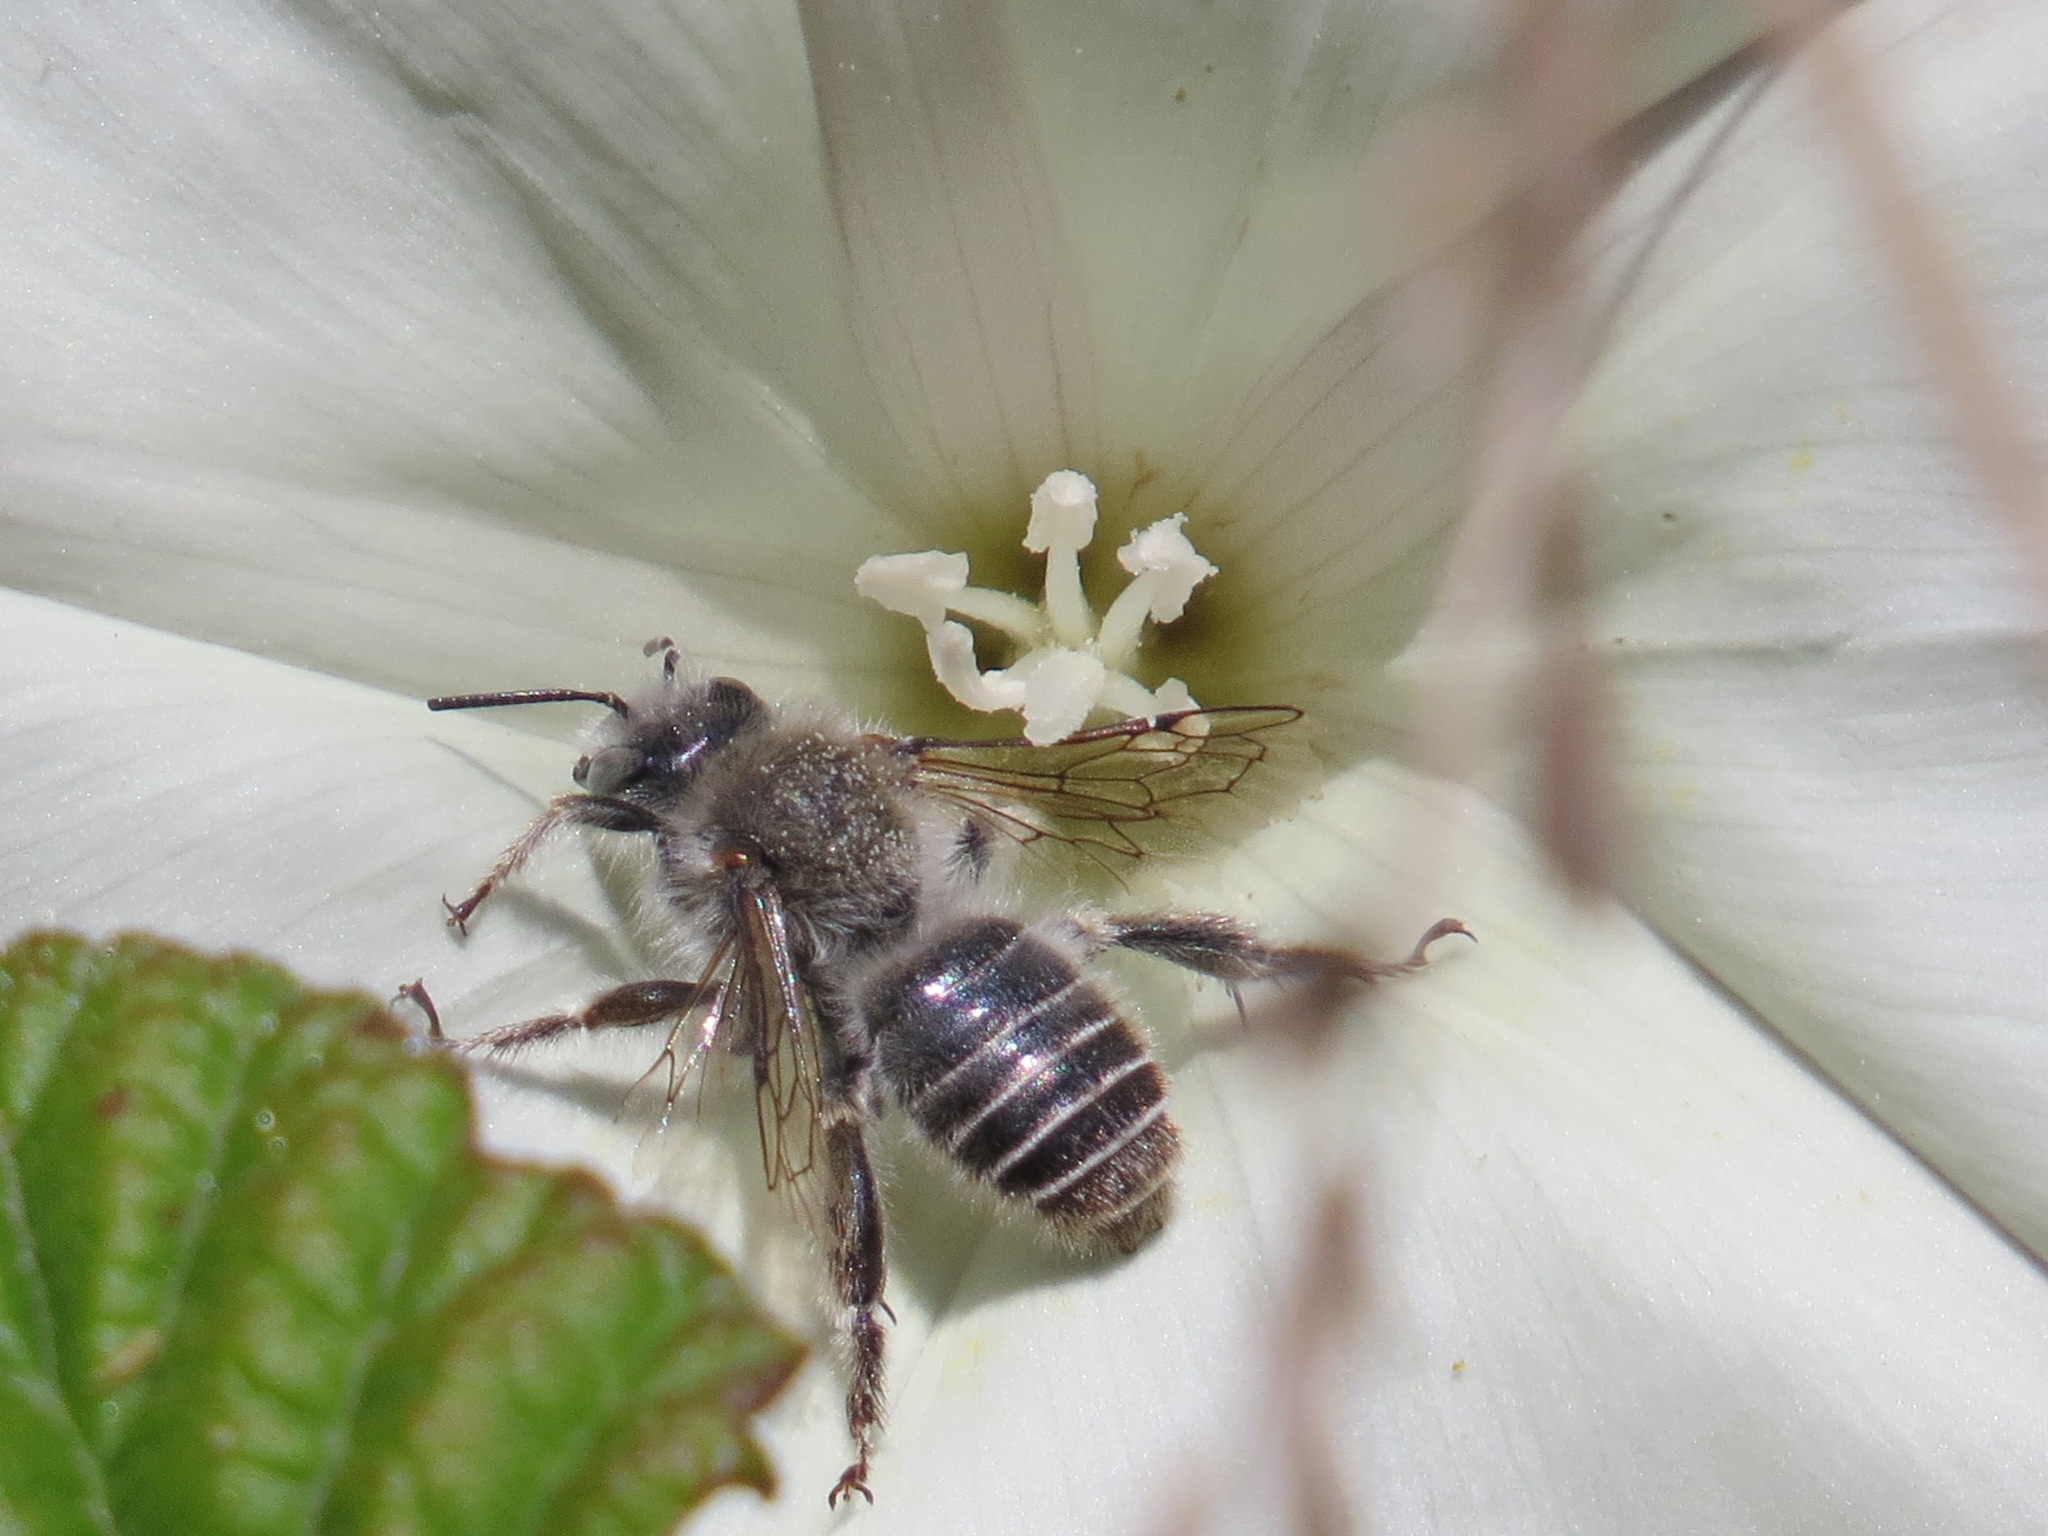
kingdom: Animalia
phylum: Arthropoda
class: Insecta
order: Hymenoptera
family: Apidae
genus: Diadasia
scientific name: Diadasia bituberculata
